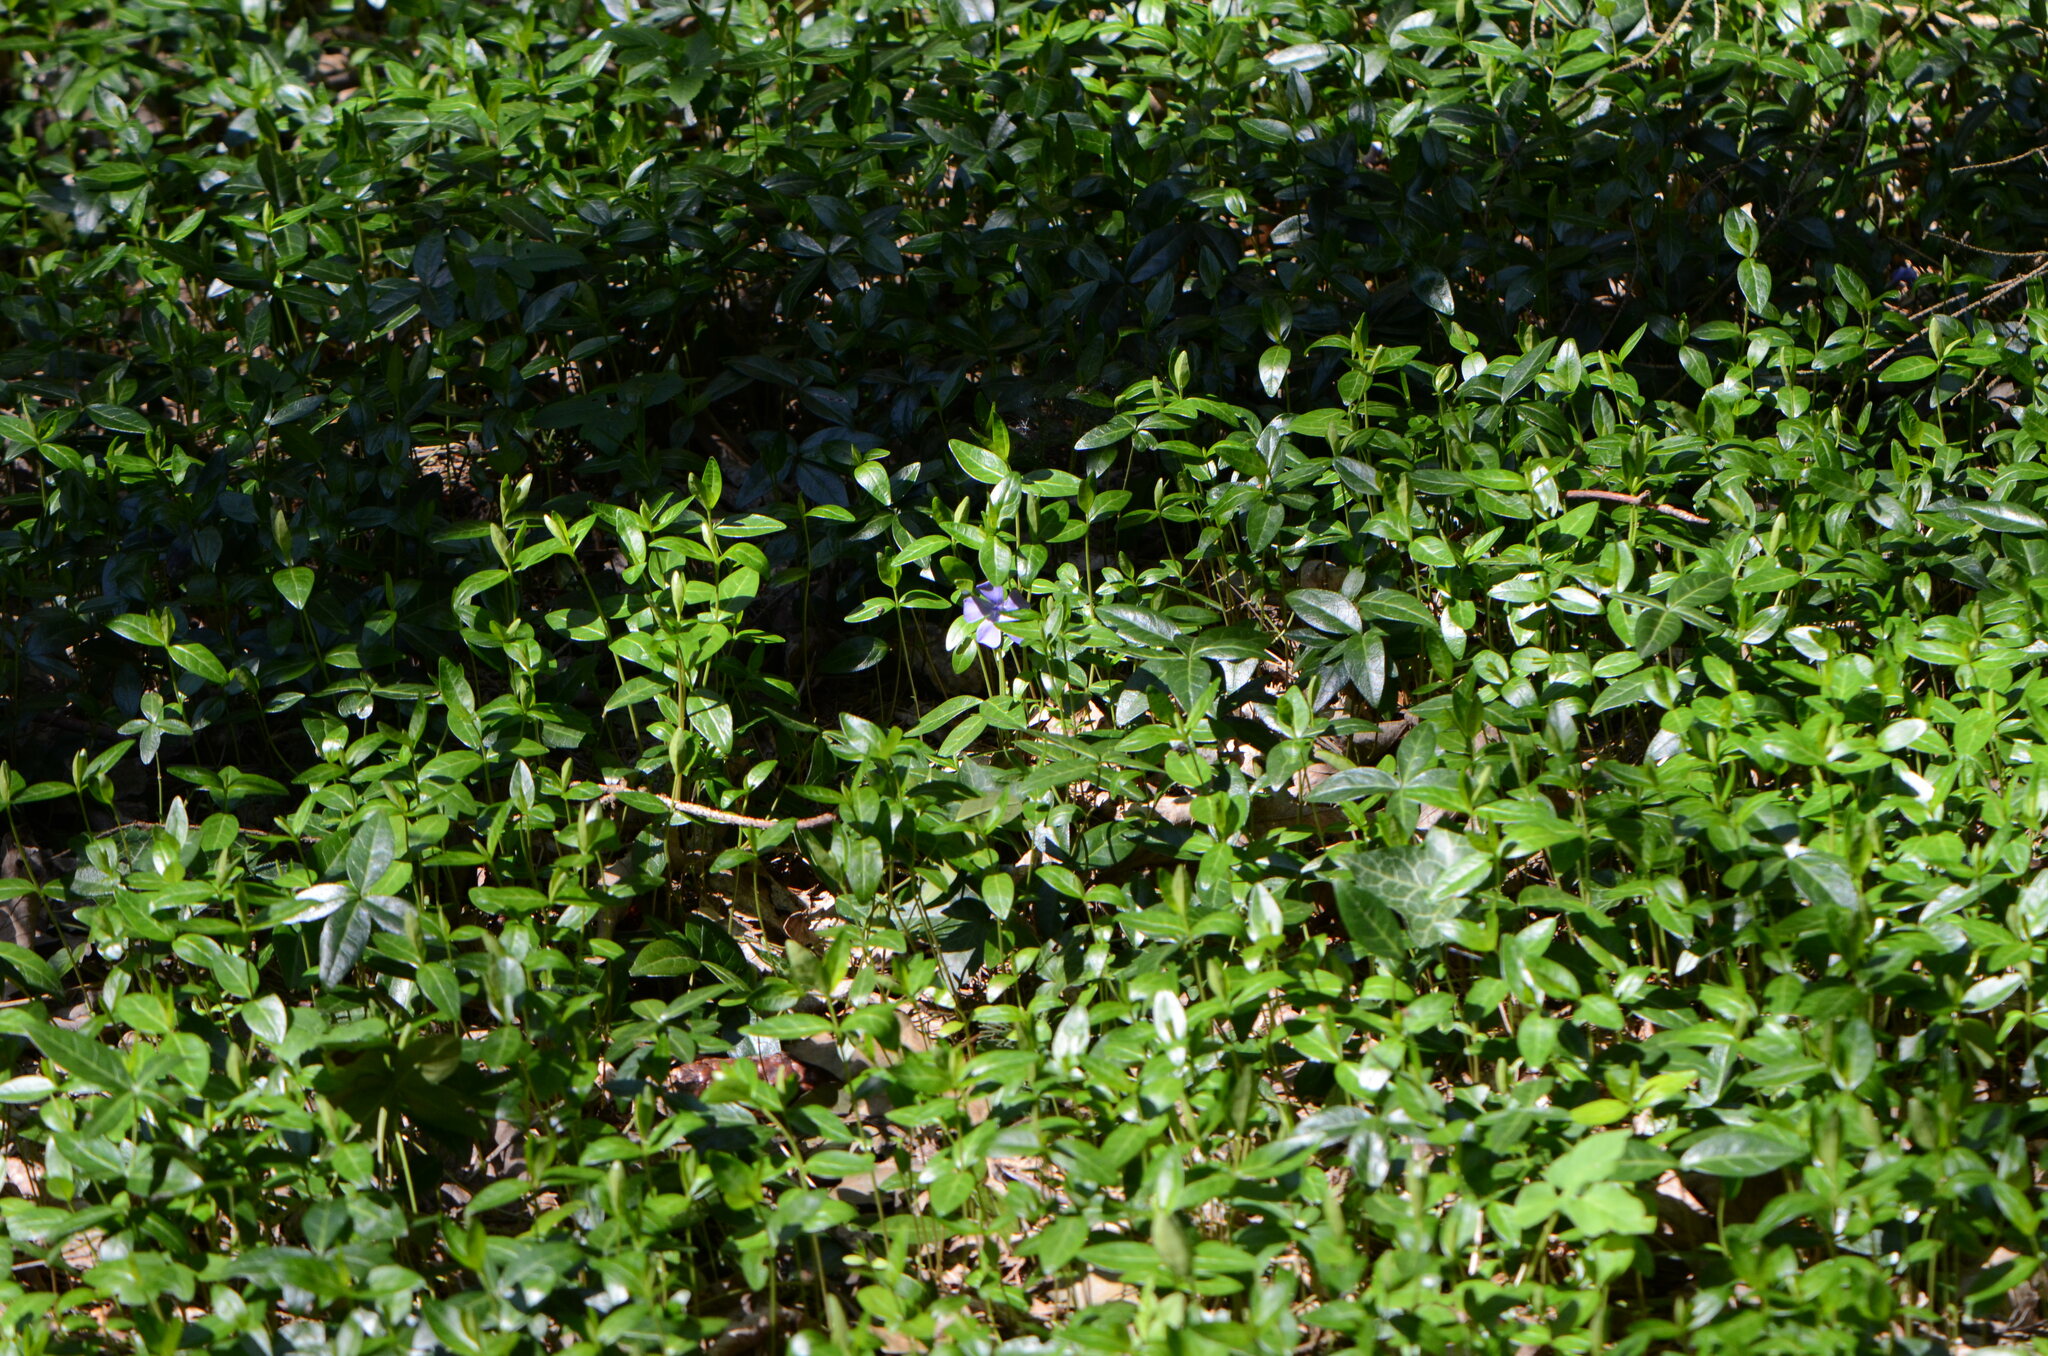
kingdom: Plantae
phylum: Tracheophyta
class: Magnoliopsida
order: Gentianales
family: Apocynaceae
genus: Vinca
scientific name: Vinca minor
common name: Lesser periwinkle
